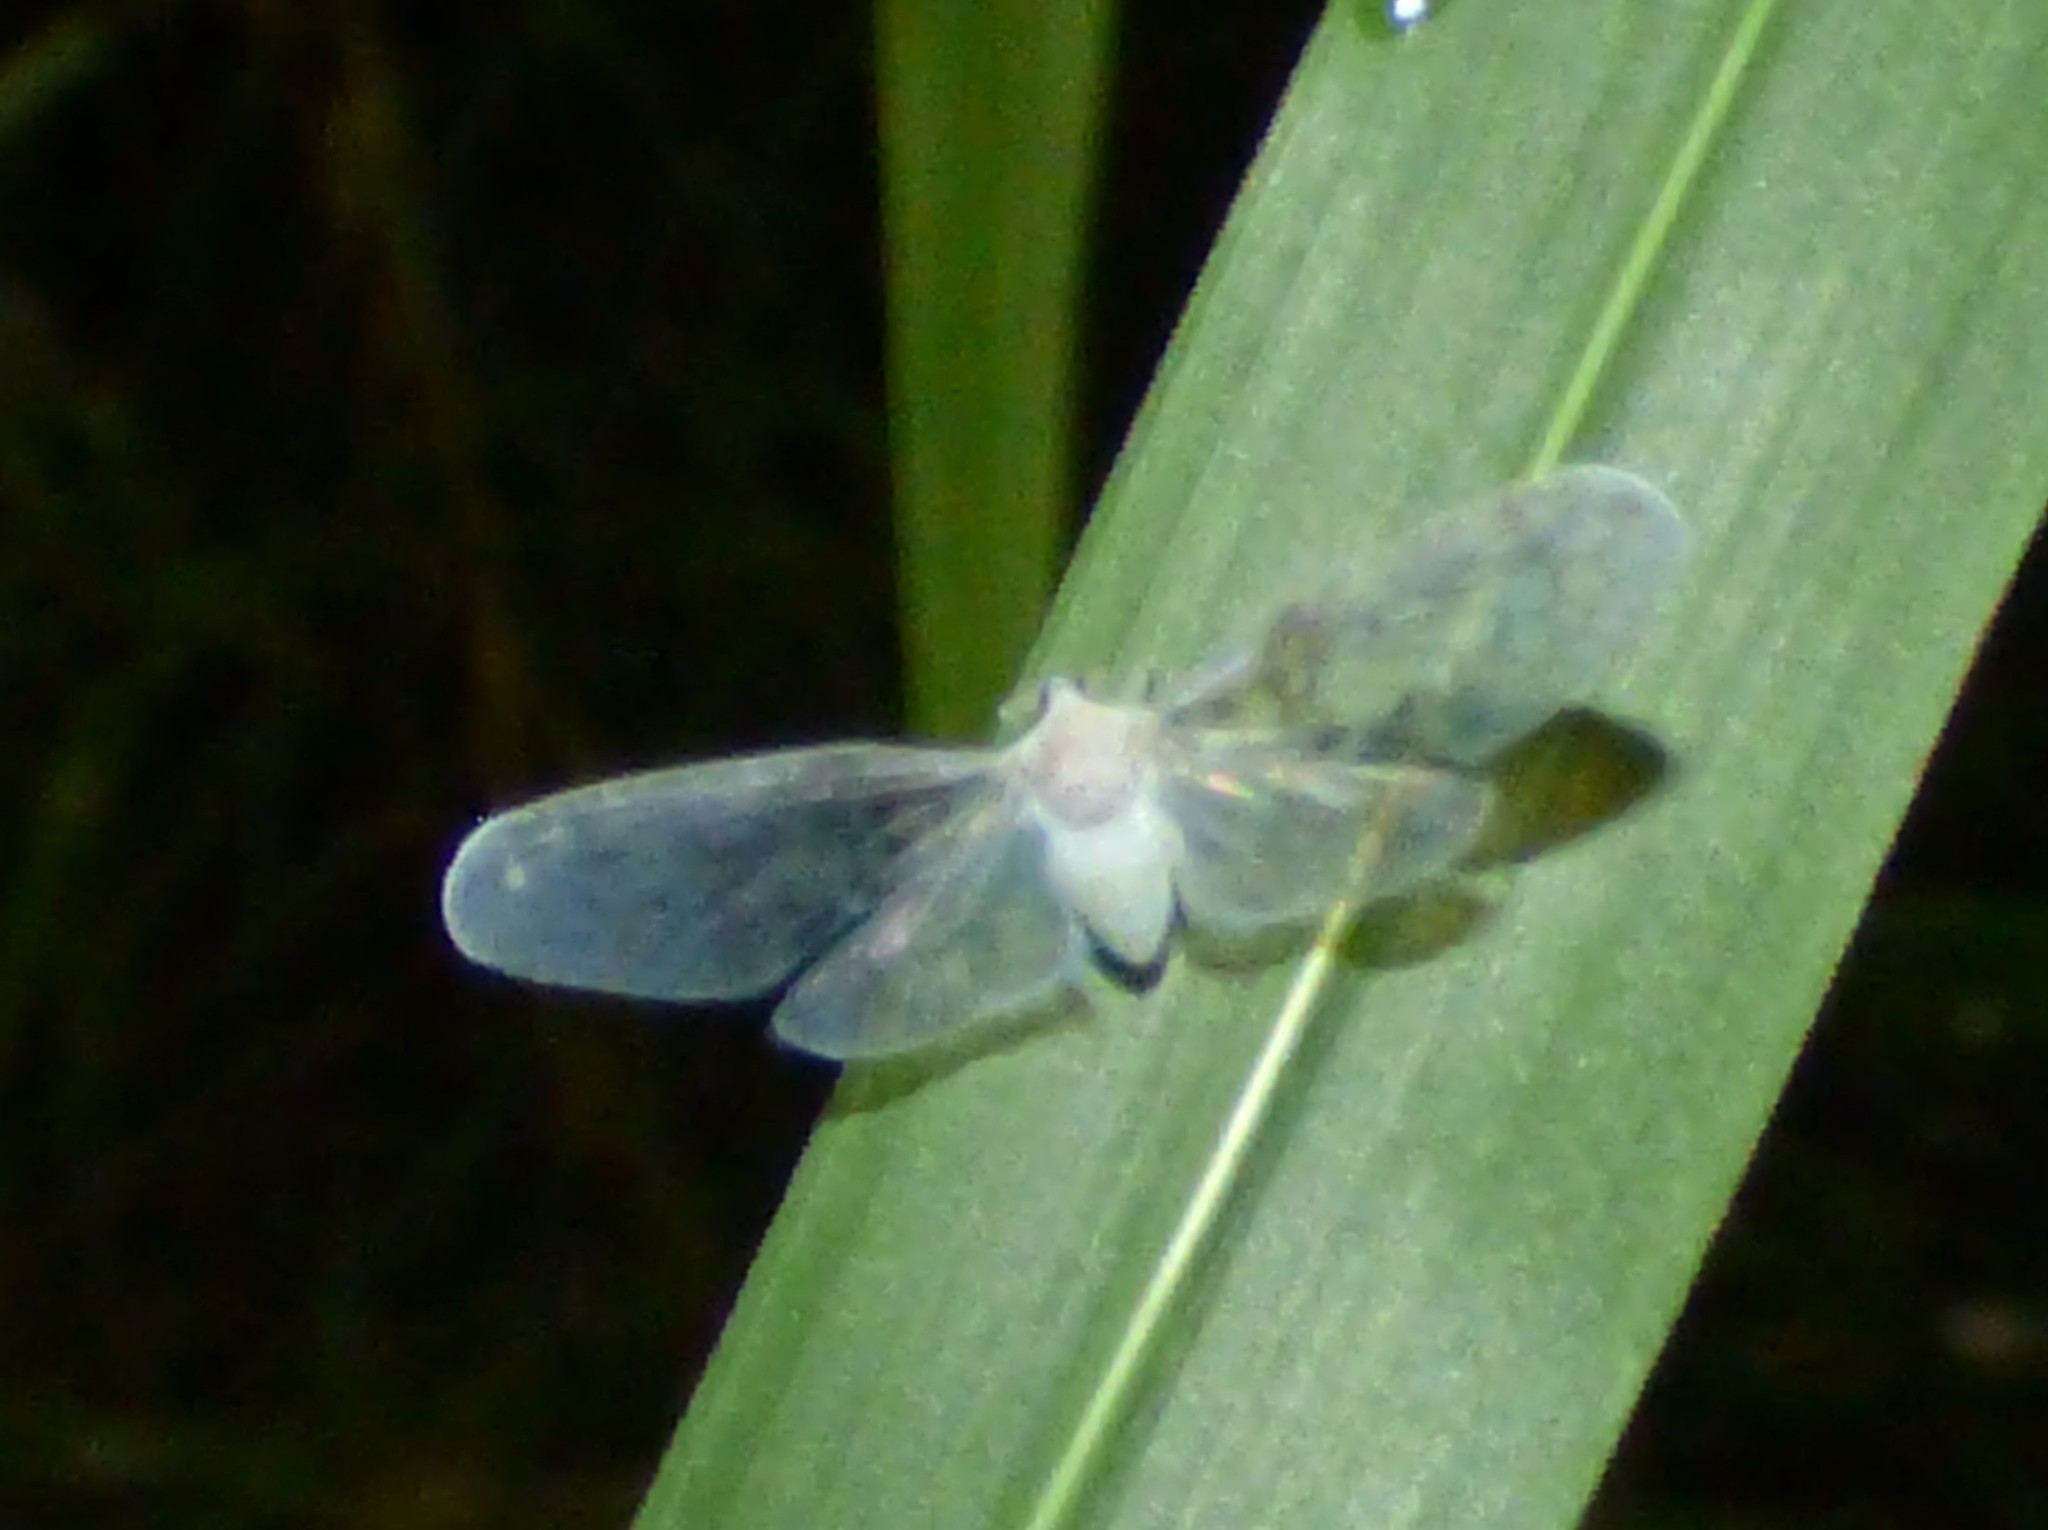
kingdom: Animalia
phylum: Arthropoda
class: Insecta
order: Hemiptera
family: Derbidae
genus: Paramysidia
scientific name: Paramysidia mississippiensis
